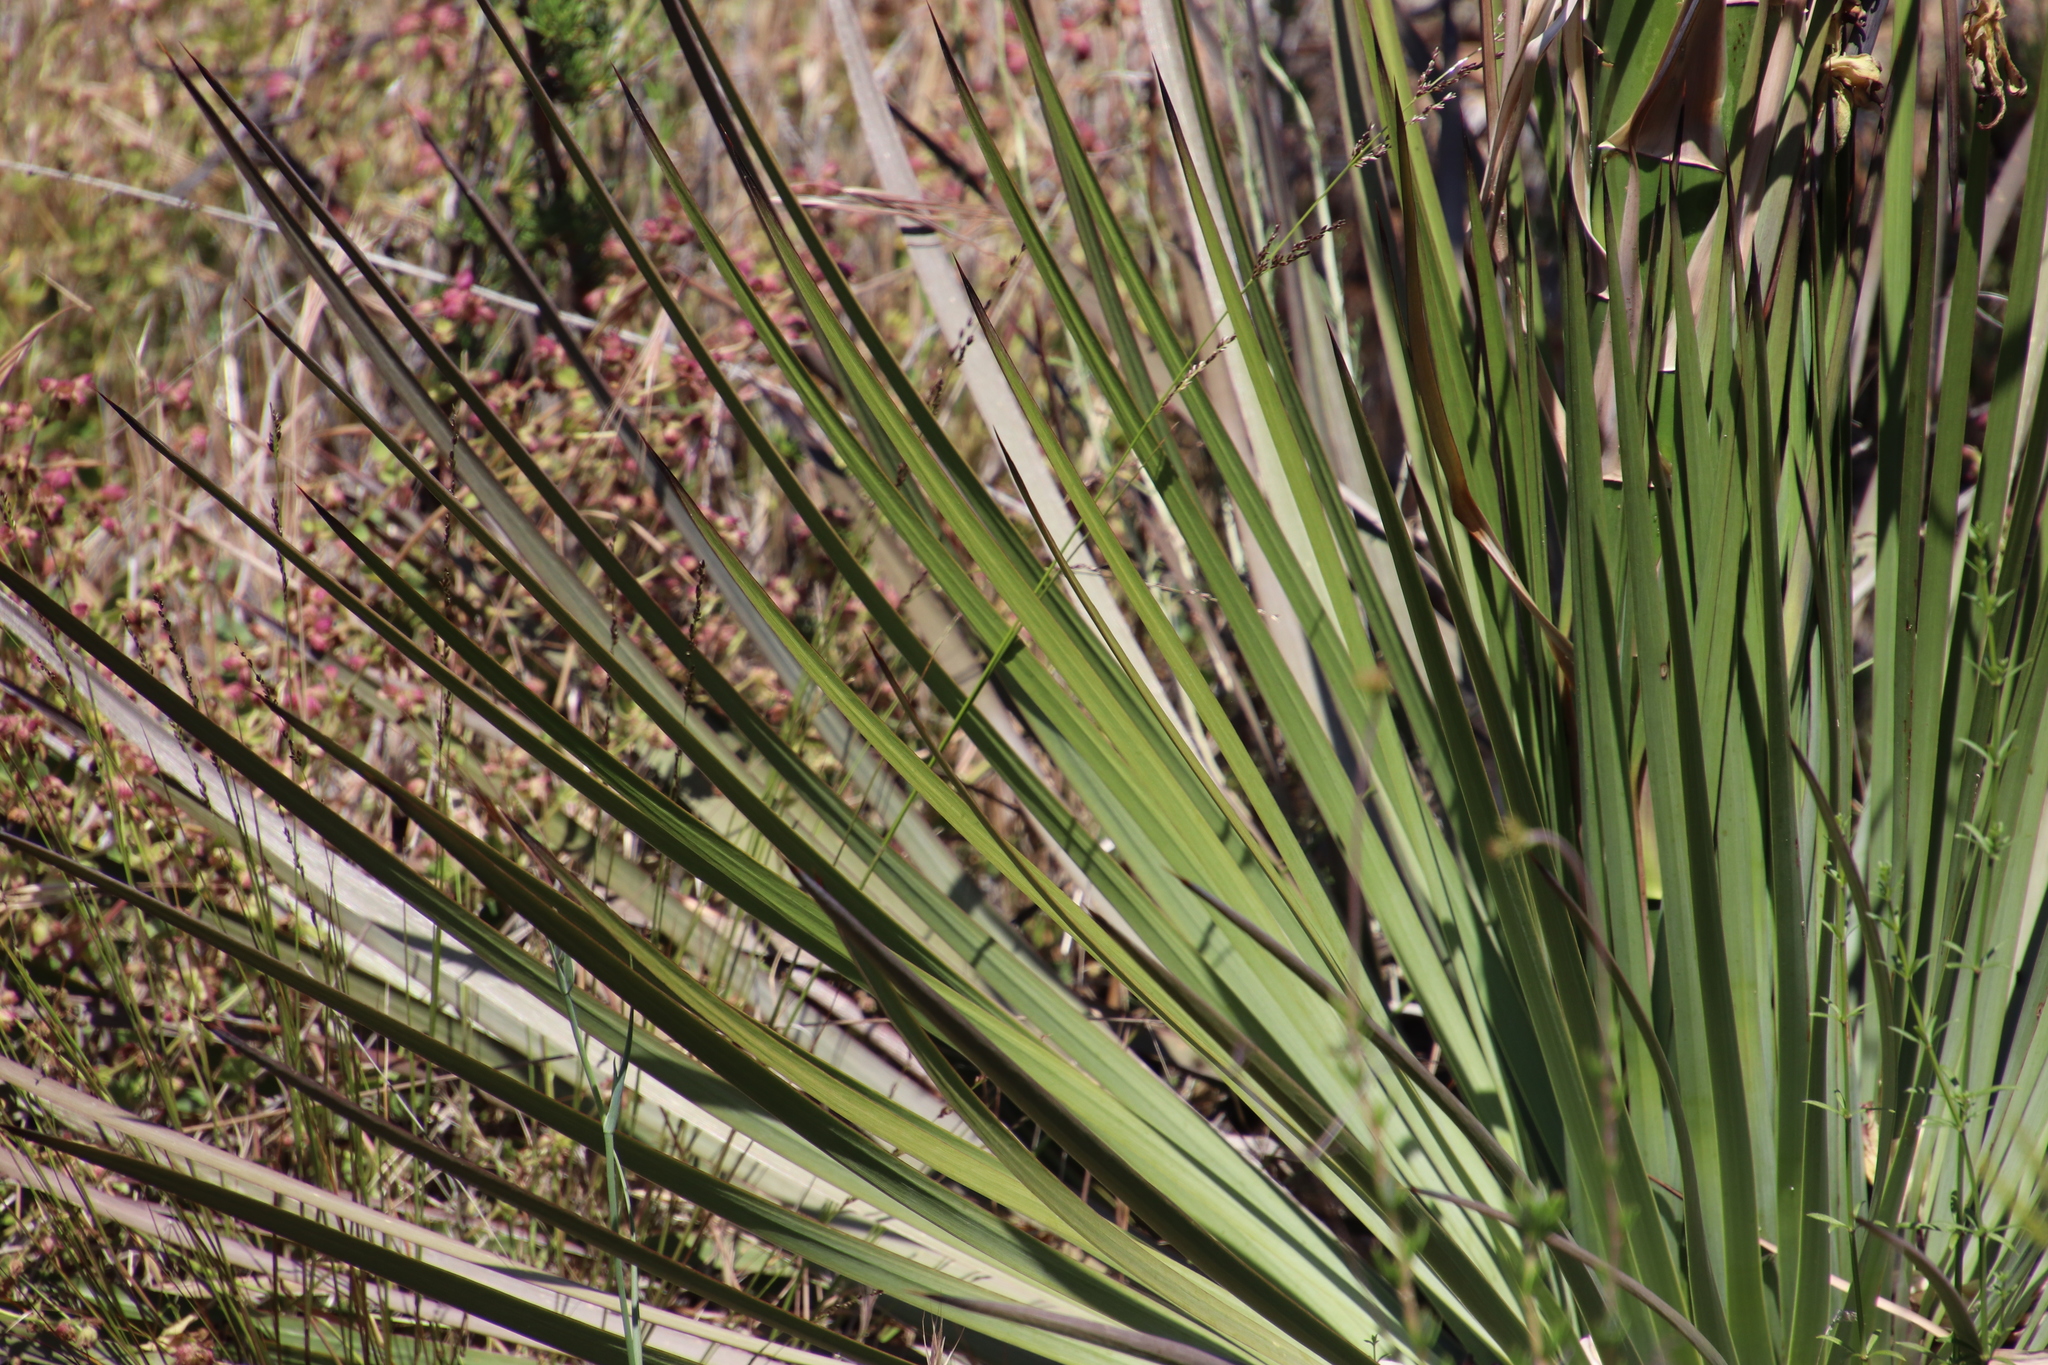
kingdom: Plantae
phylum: Tracheophyta
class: Liliopsida
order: Asparagales
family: Asparagaceae
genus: Hesperoyucca
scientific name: Hesperoyucca whipplei
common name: Our lord's-candle
